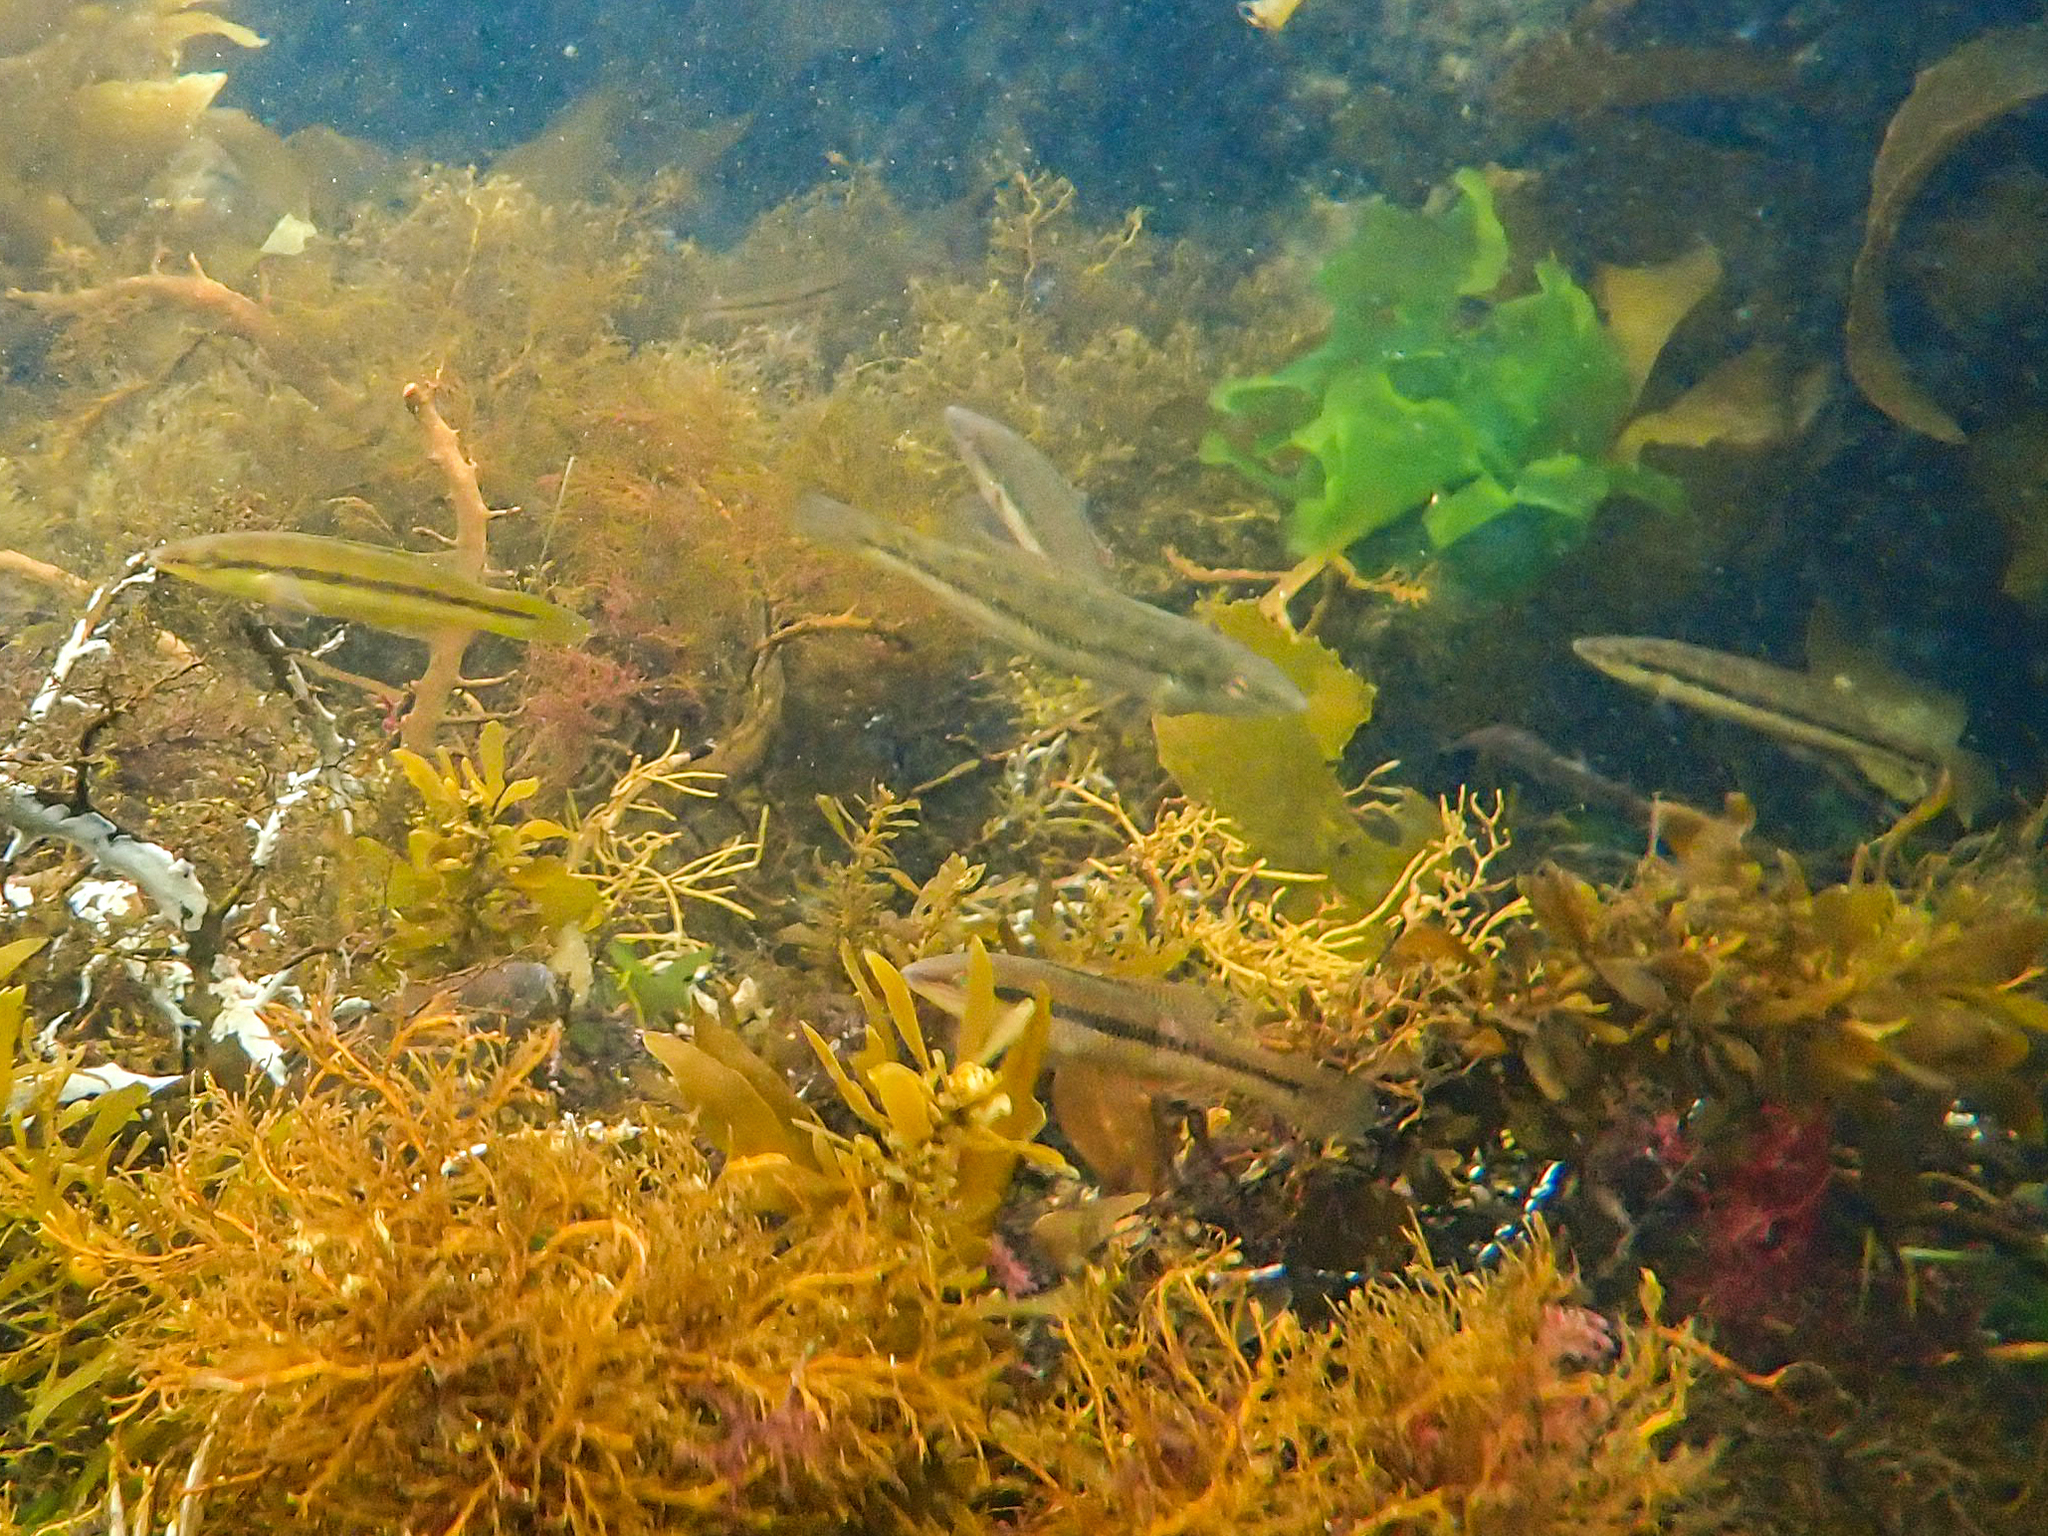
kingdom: Animalia
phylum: Chordata
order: Perciformes
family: Odacidae
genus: Neoodax
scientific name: Neoodax balteatus
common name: Ground mullet
